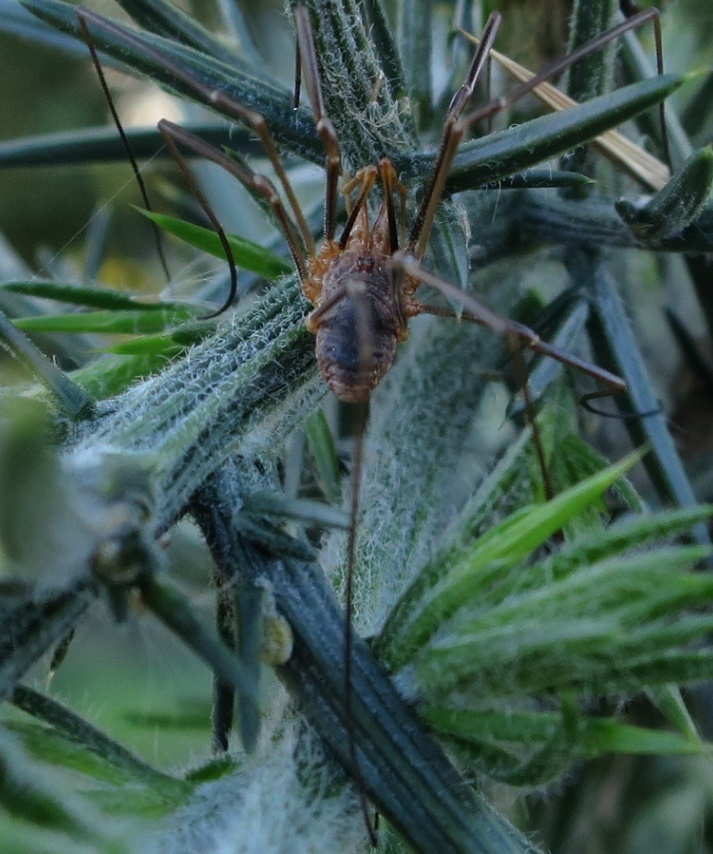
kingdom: Animalia
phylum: Arthropoda
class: Arachnida
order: Opiliones
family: Phalangiidae
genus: Phalangium
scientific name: Phalangium opilio
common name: Daddy longleg
